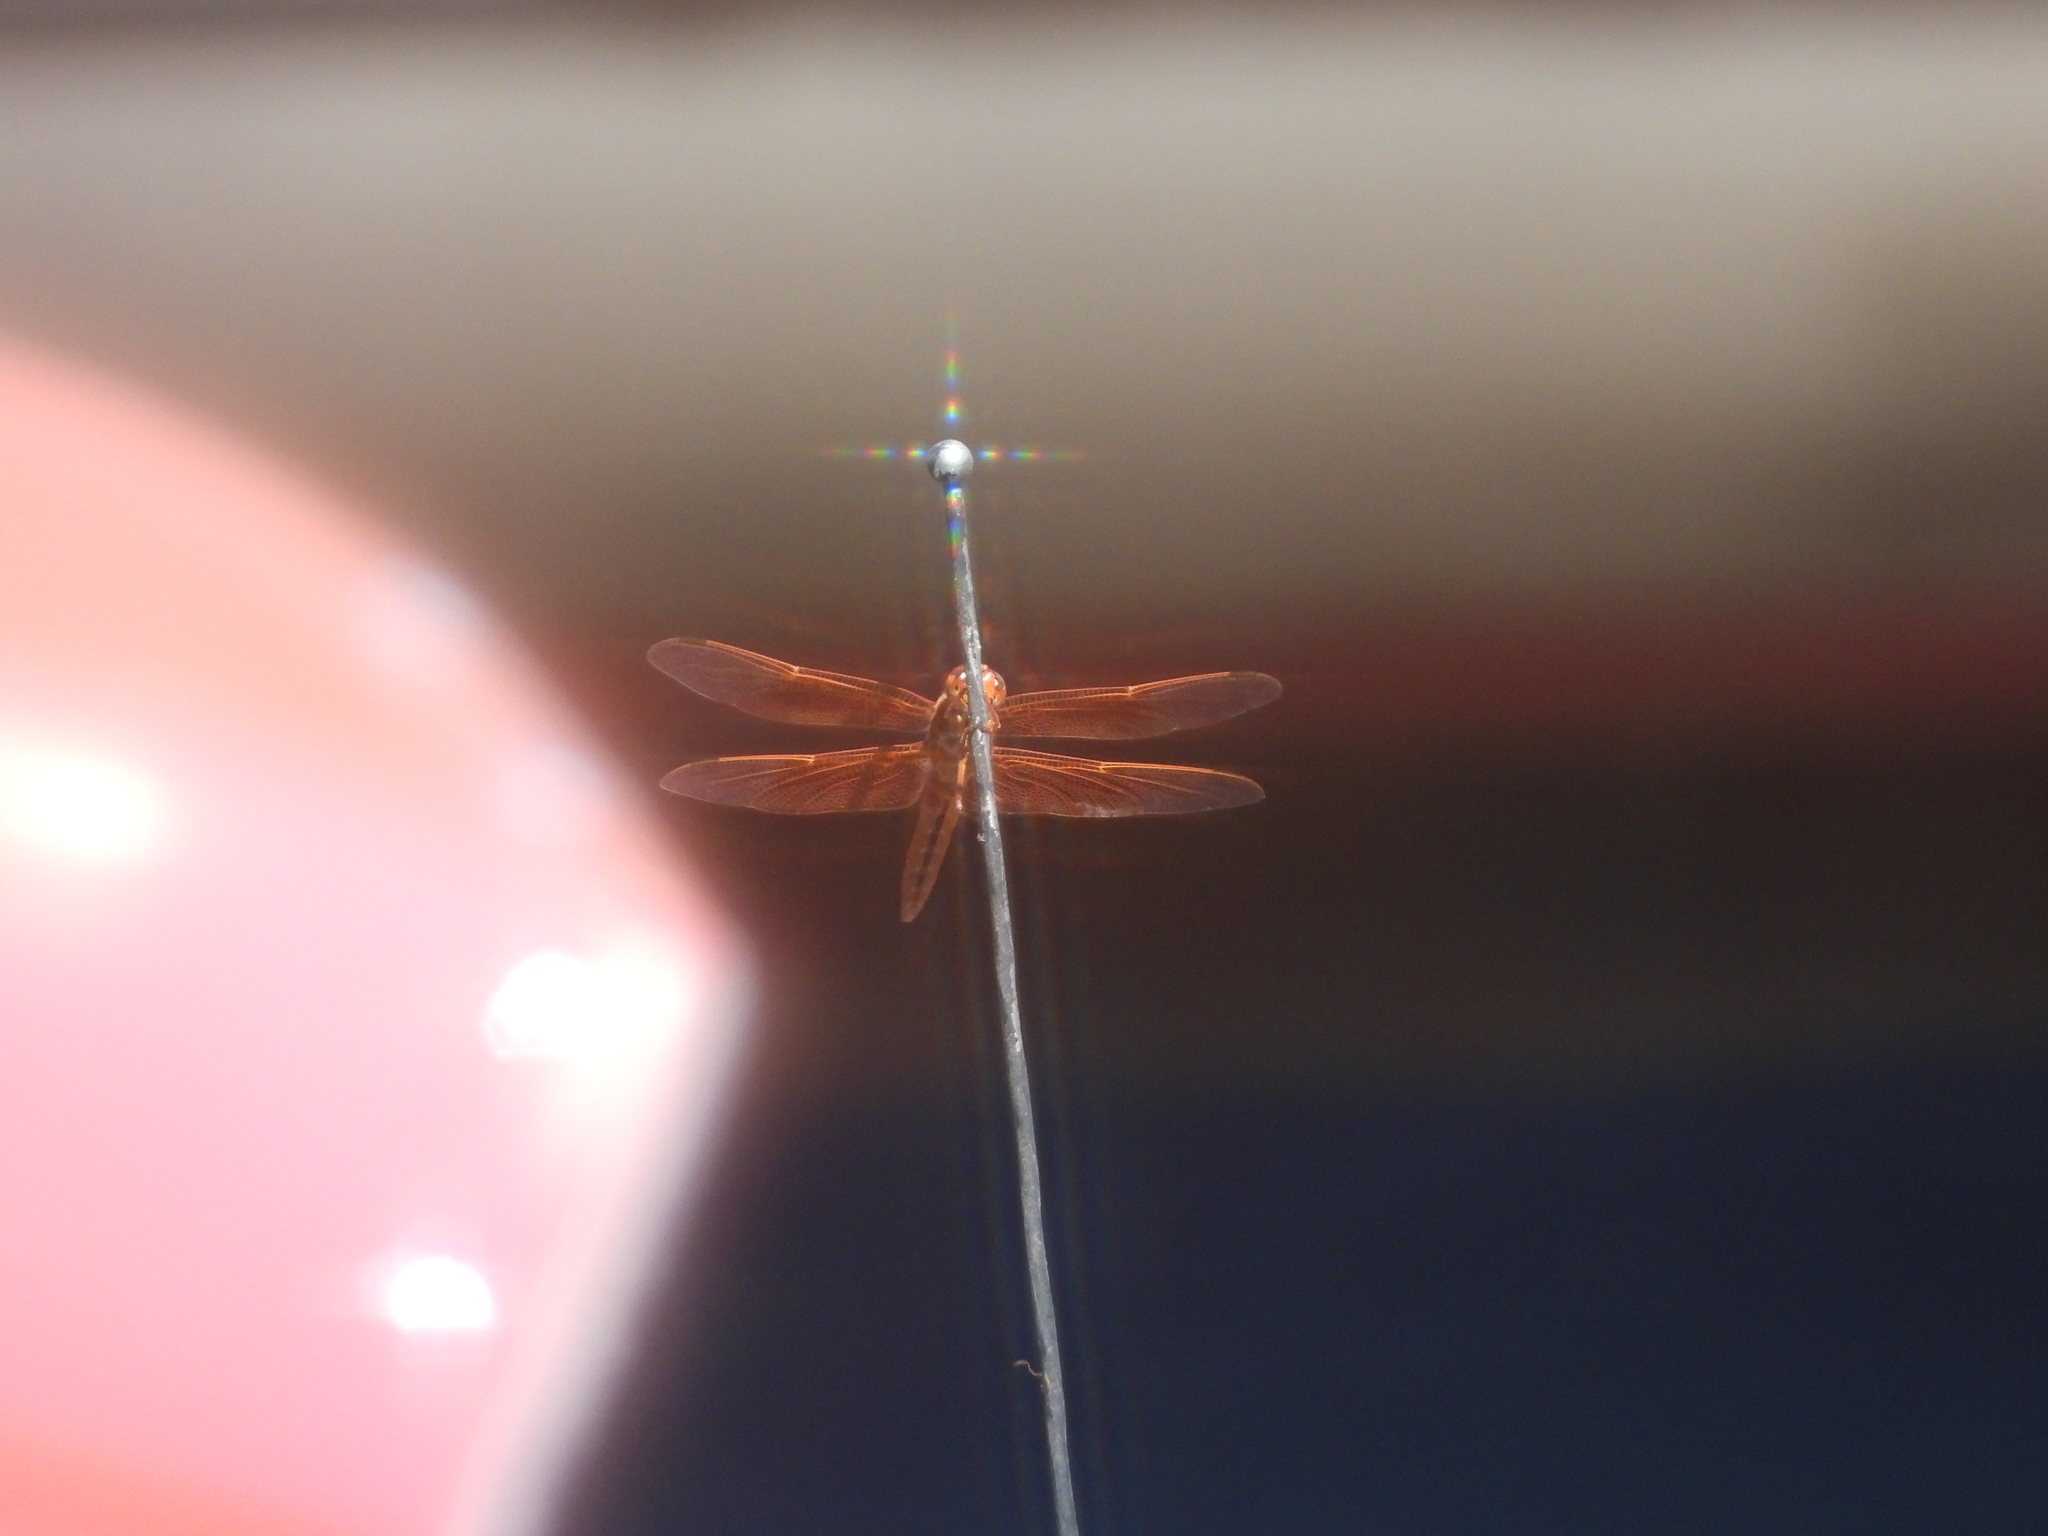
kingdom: Animalia
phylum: Arthropoda
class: Insecta
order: Odonata
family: Libellulidae
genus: Libellula
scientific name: Libellula saturata
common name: Flame skimmer
